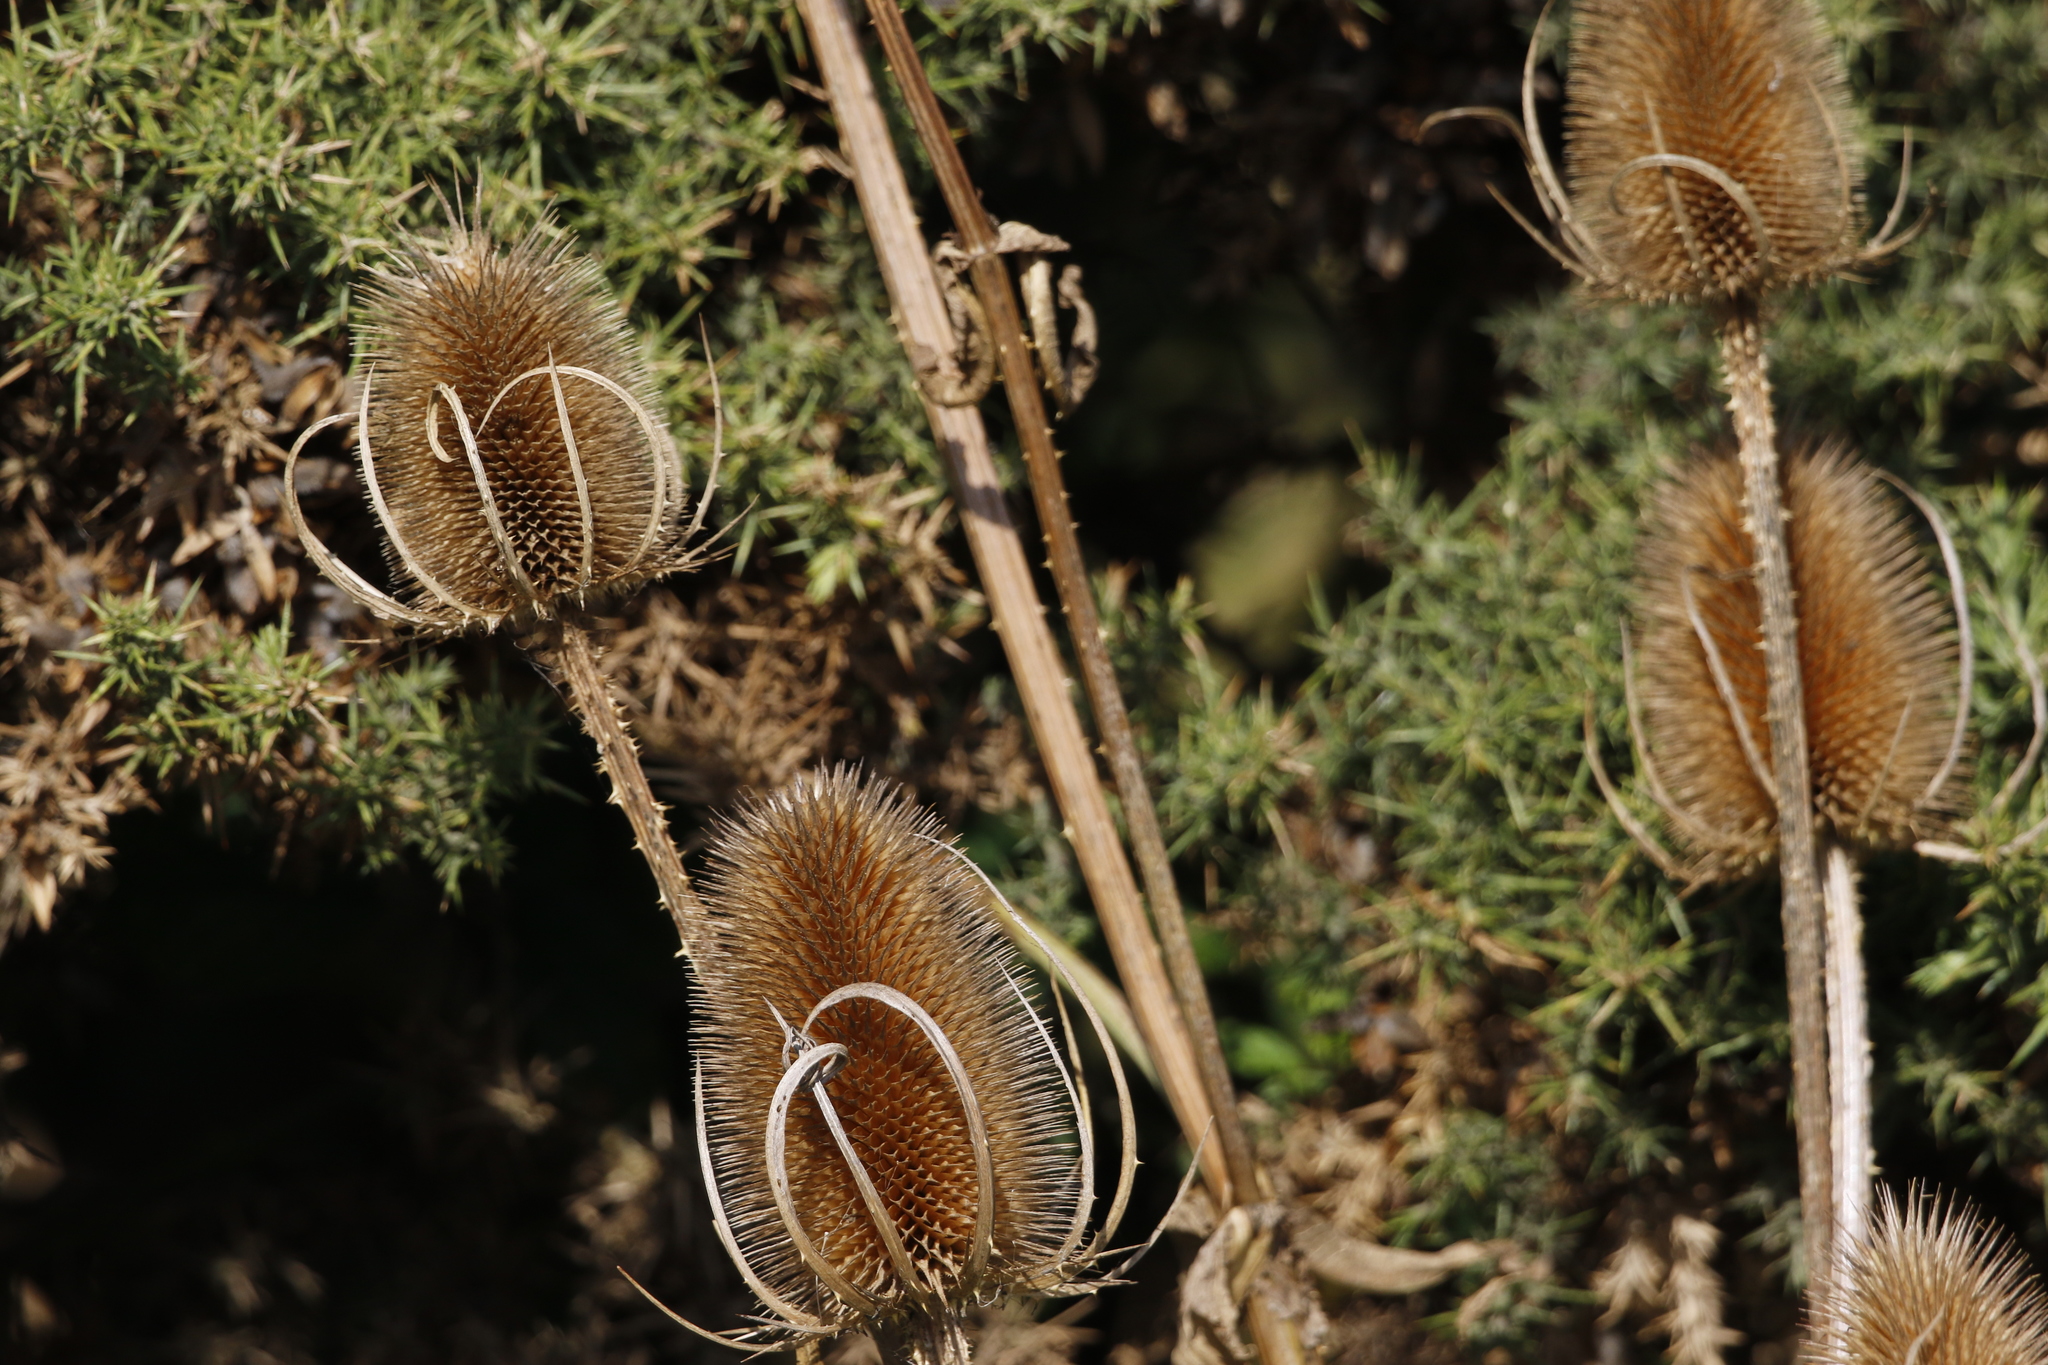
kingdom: Plantae
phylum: Tracheophyta
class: Magnoliopsida
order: Dipsacales
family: Caprifoliaceae
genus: Dipsacus
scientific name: Dipsacus fullonum
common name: Teasel
